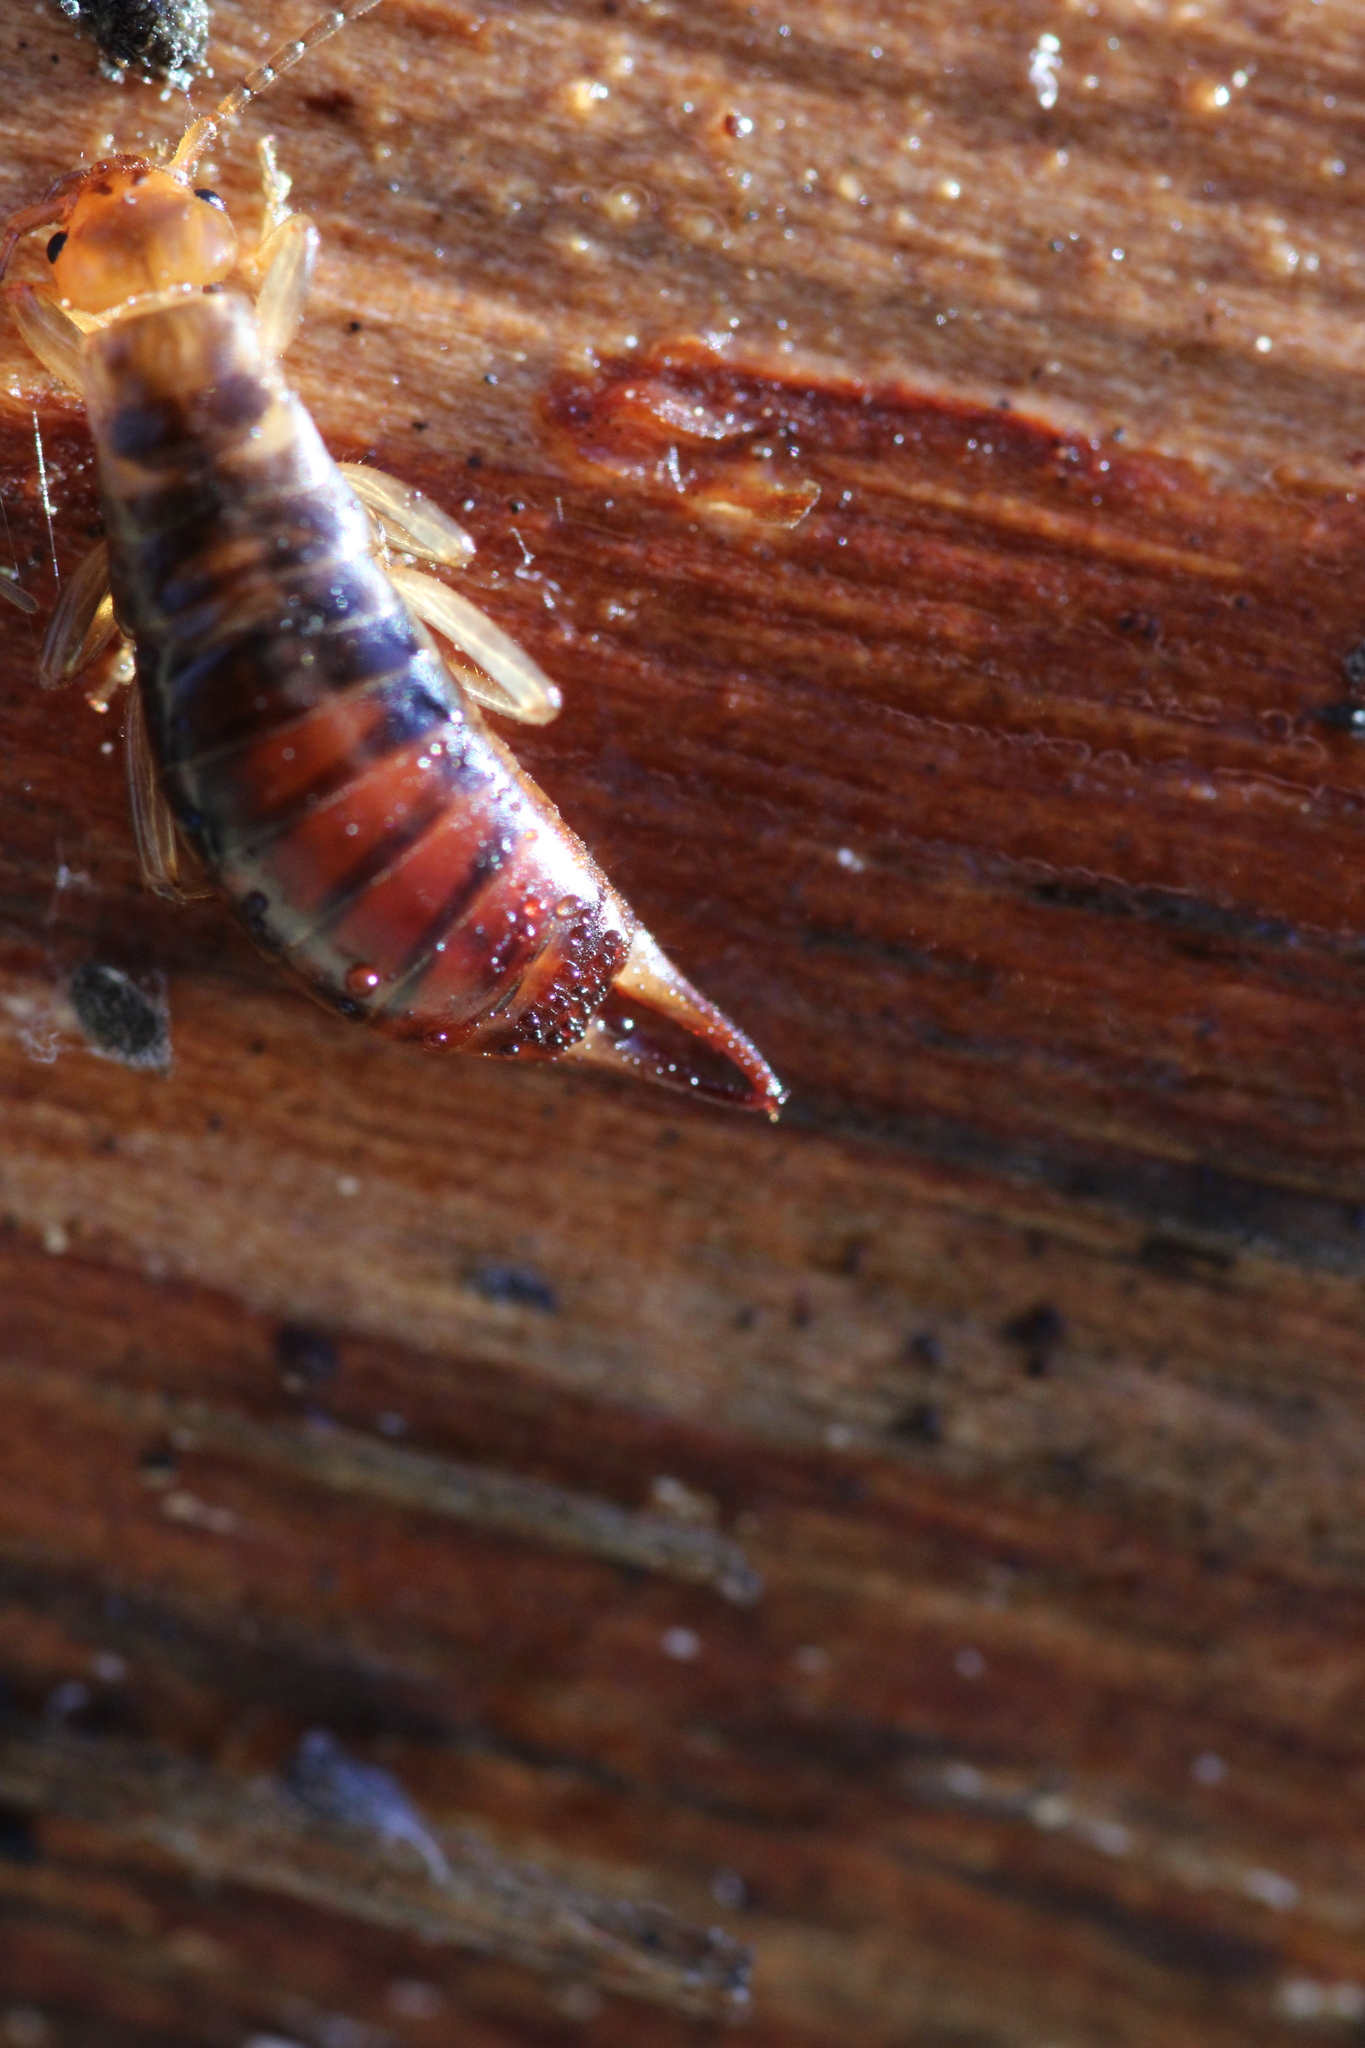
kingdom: Animalia
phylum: Arthropoda
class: Insecta
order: Dermaptera
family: Forficulidae
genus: Chelidurella
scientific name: Chelidurella acanthopygia
